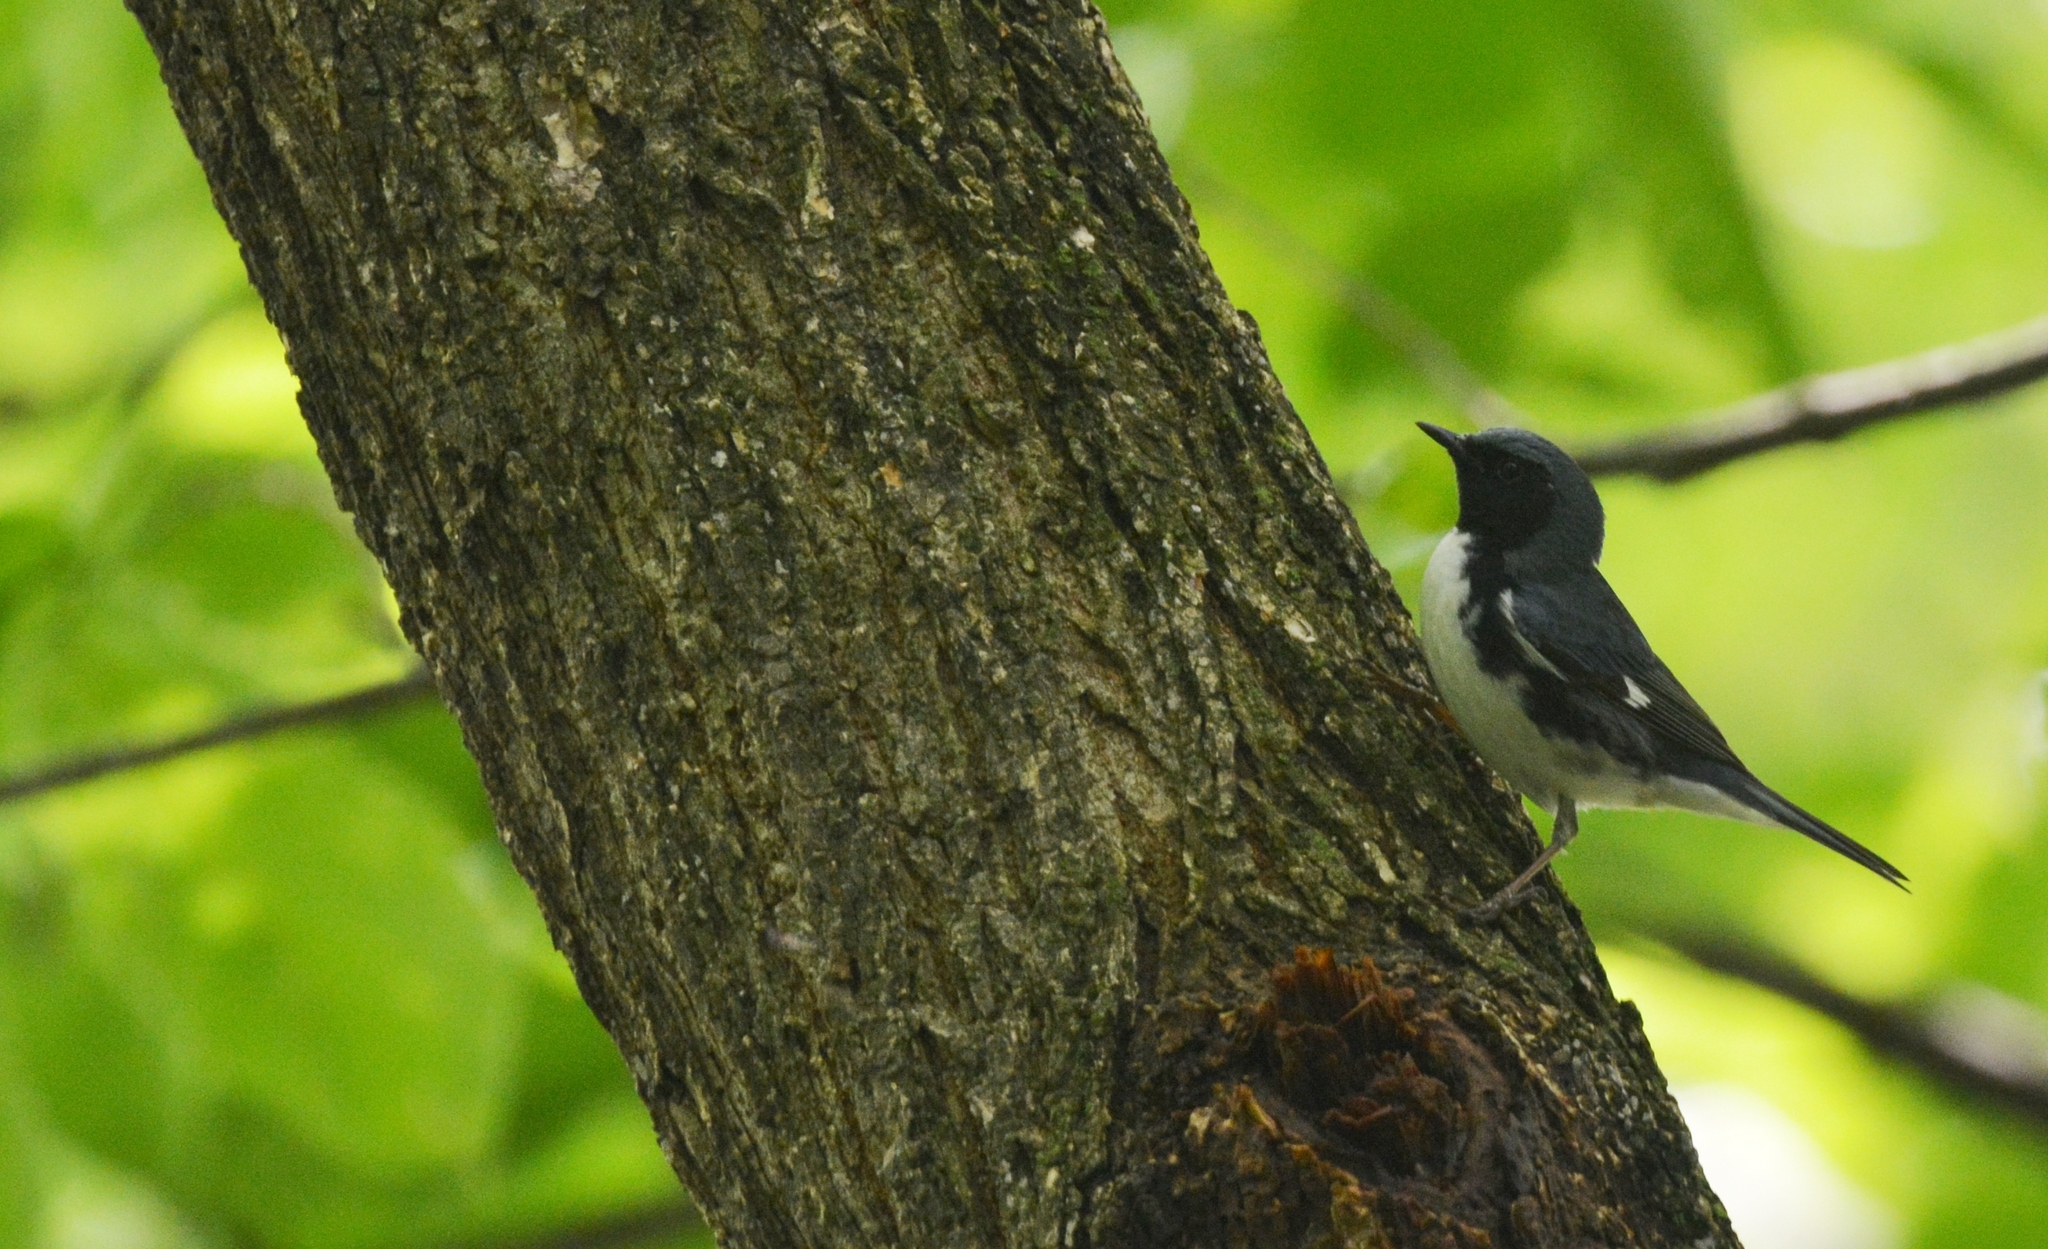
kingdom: Animalia
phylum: Chordata
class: Aves
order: Passeriformes
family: Parulidae
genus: Setophaga
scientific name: Setophaga caerulescens
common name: Black-throated blue warbler
